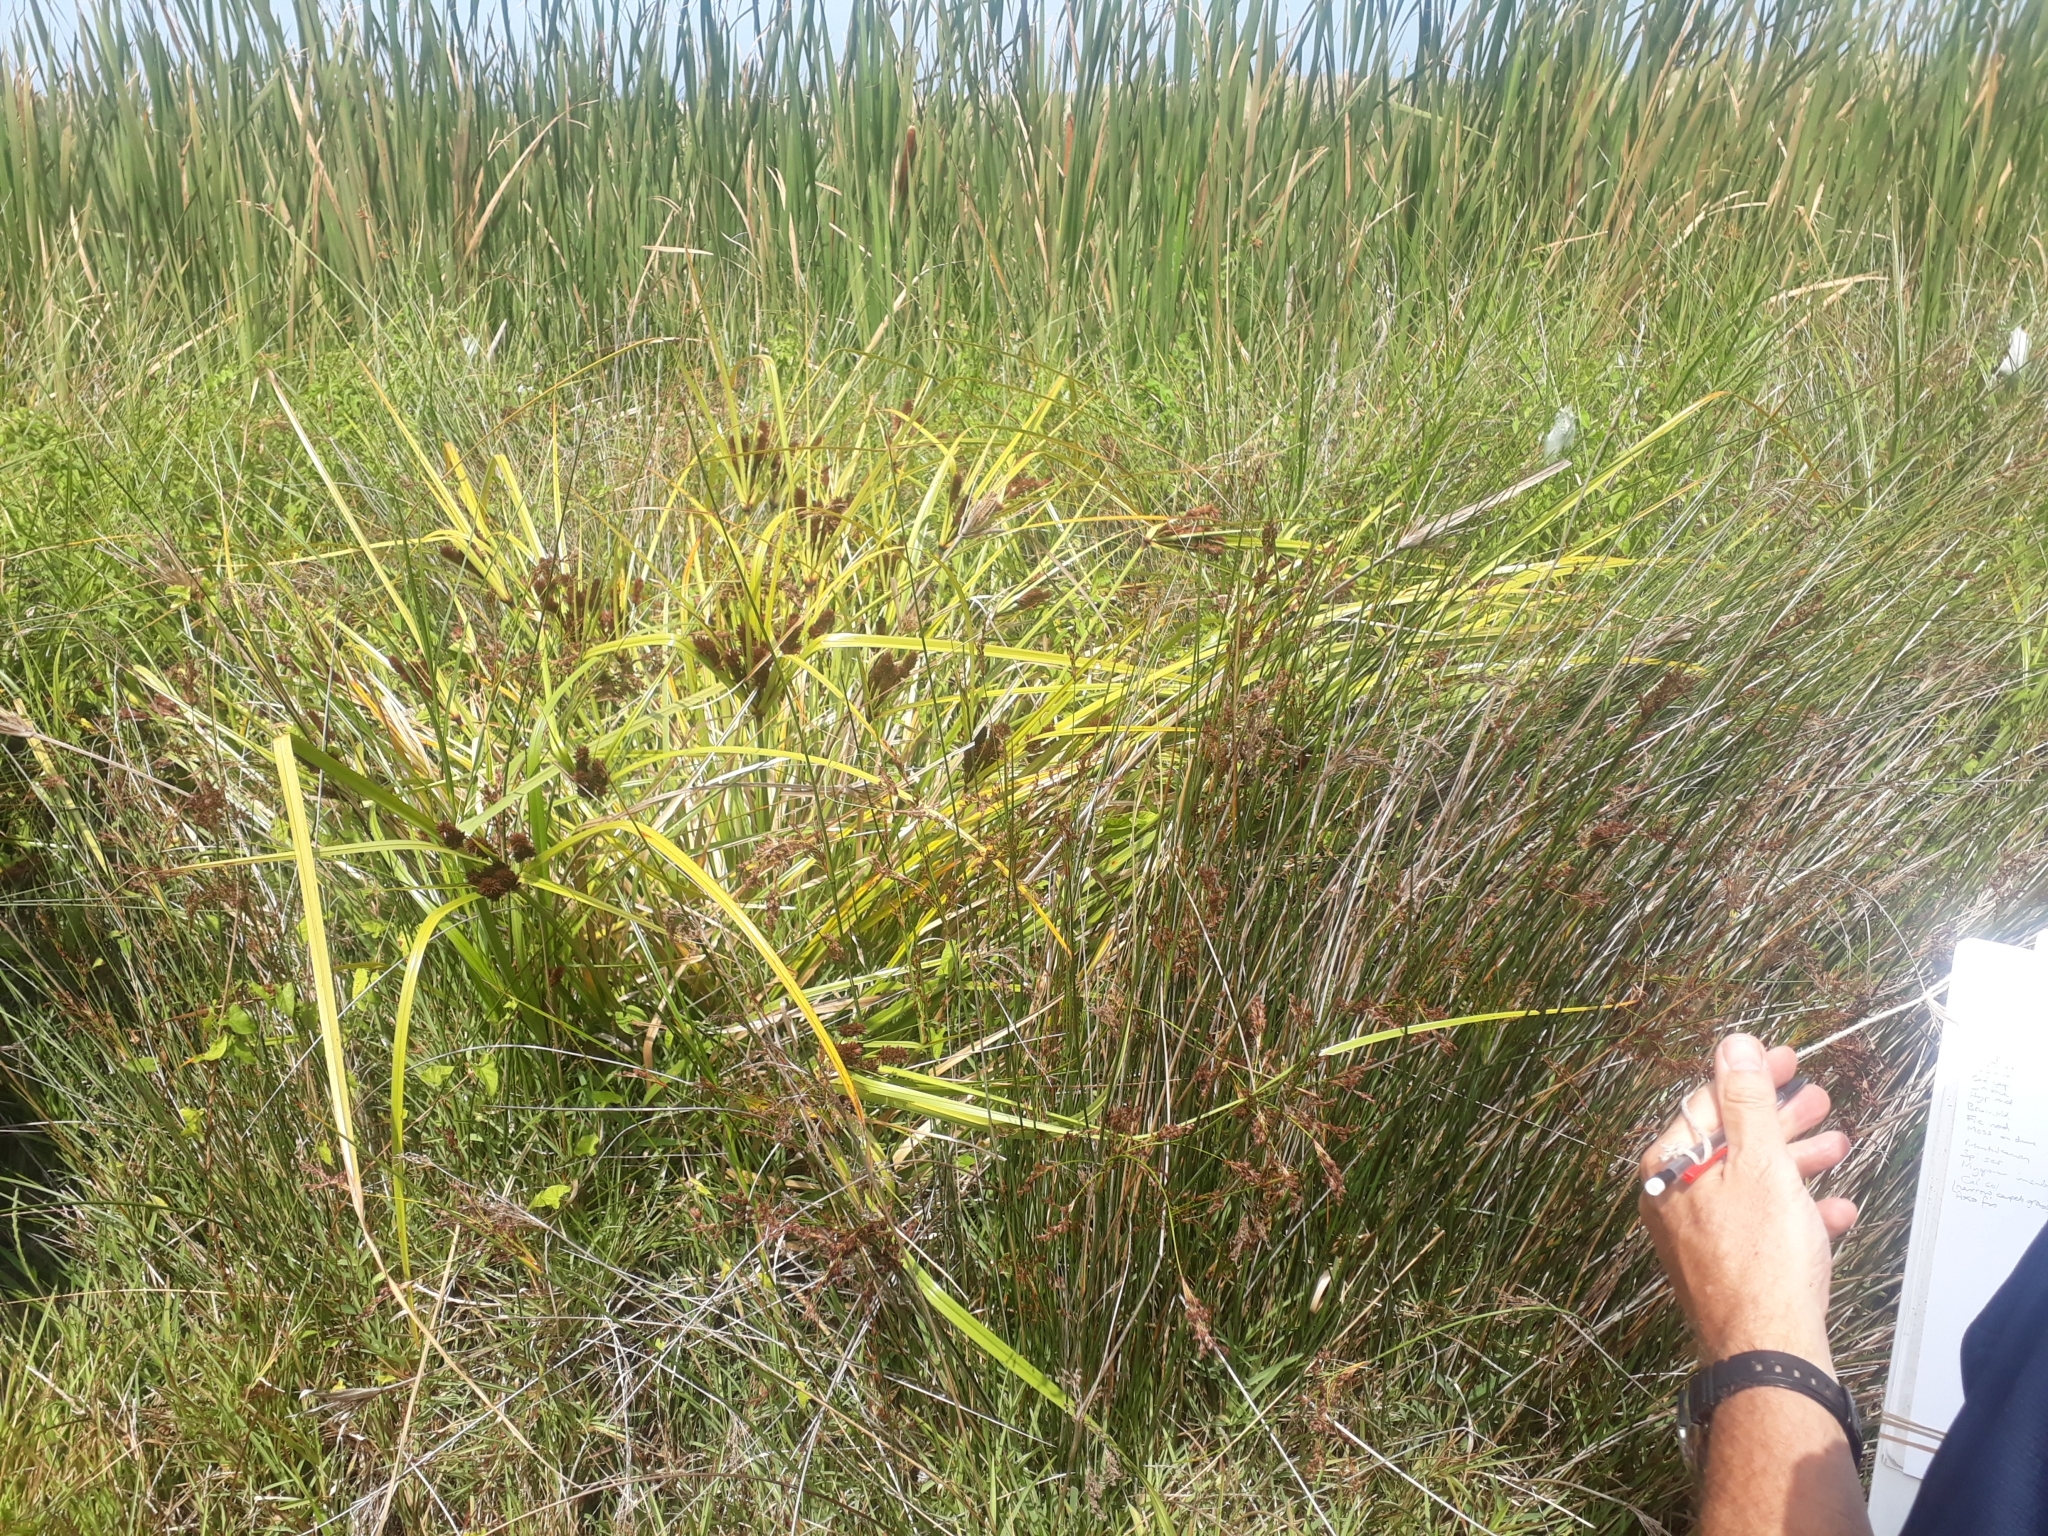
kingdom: Plantae
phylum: Tracheophyta
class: Liliopsida
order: Poales
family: Cyperaceae
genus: Cyperus
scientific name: Cyperus ustulatus
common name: Giant umbrella-sedge
